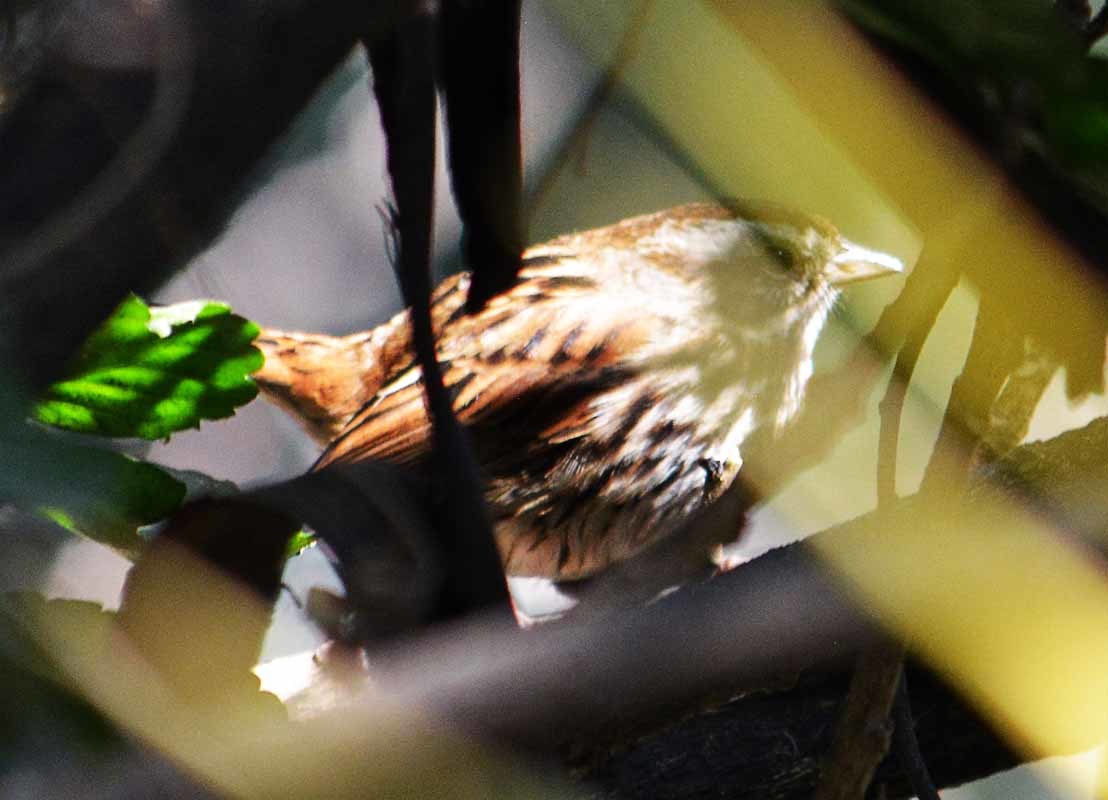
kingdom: Animalia
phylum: Chordata
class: Aves
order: Passeriformes
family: Passerellidae
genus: Melospiza
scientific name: Melospiza melodia
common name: Song sparrow
